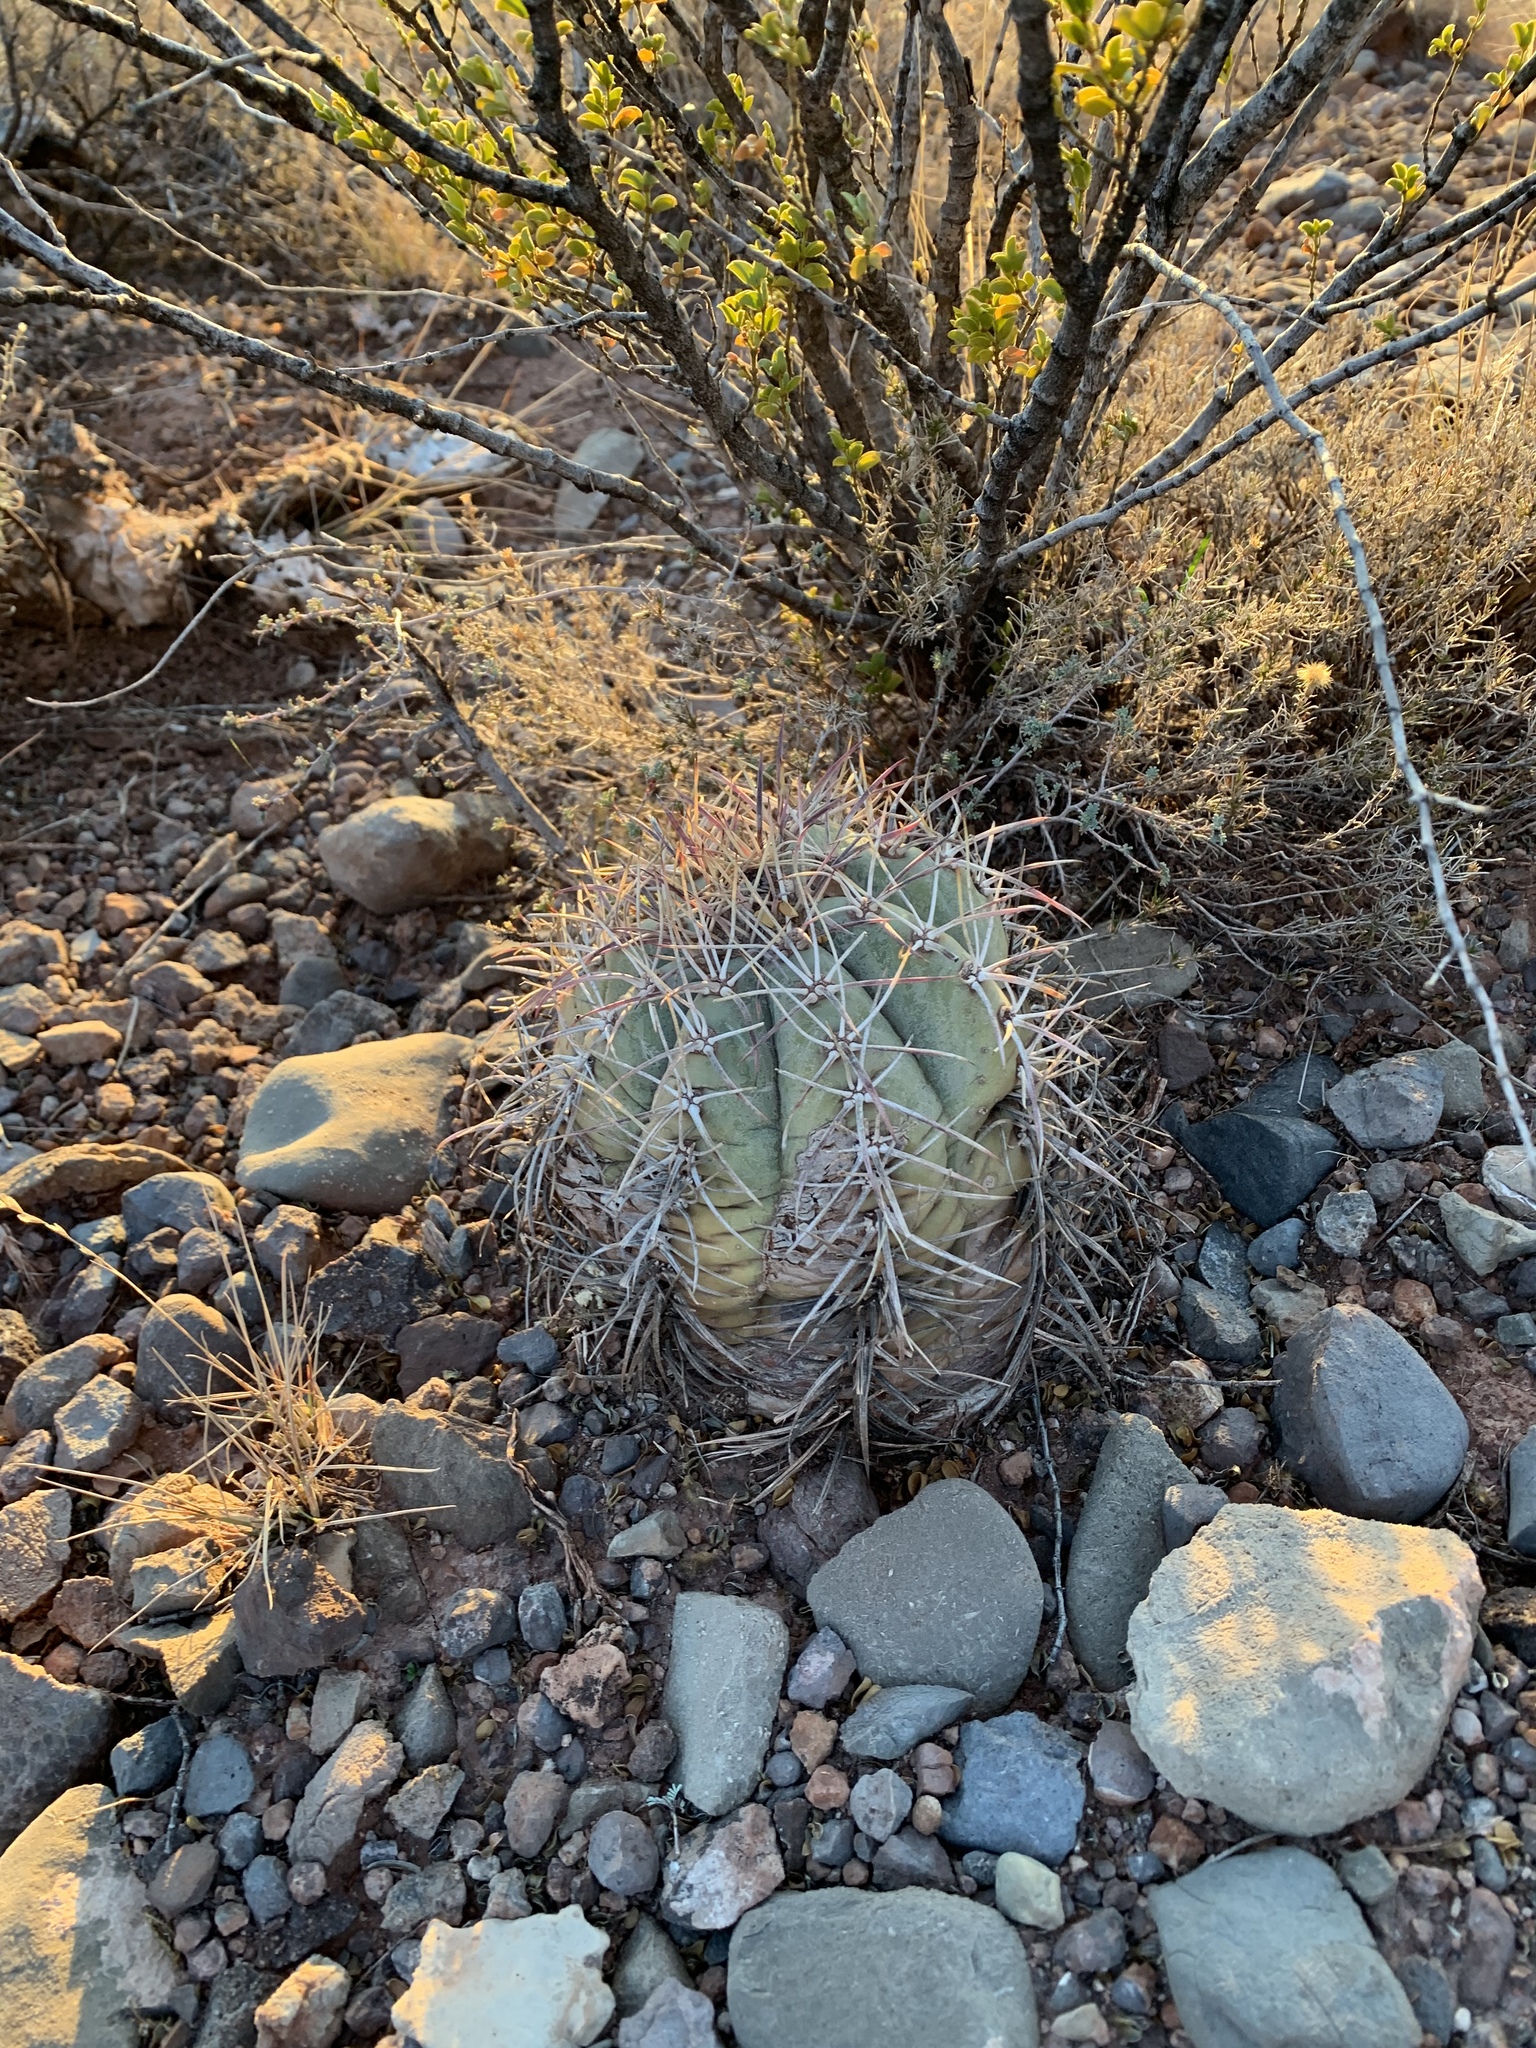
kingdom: Plantae
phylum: Tracheophyta
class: Magnoliopsida
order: Caryophyllales
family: Cactaceae
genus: Echinocactus
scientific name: Echinocactus horizonthalonius
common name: Devilshead
